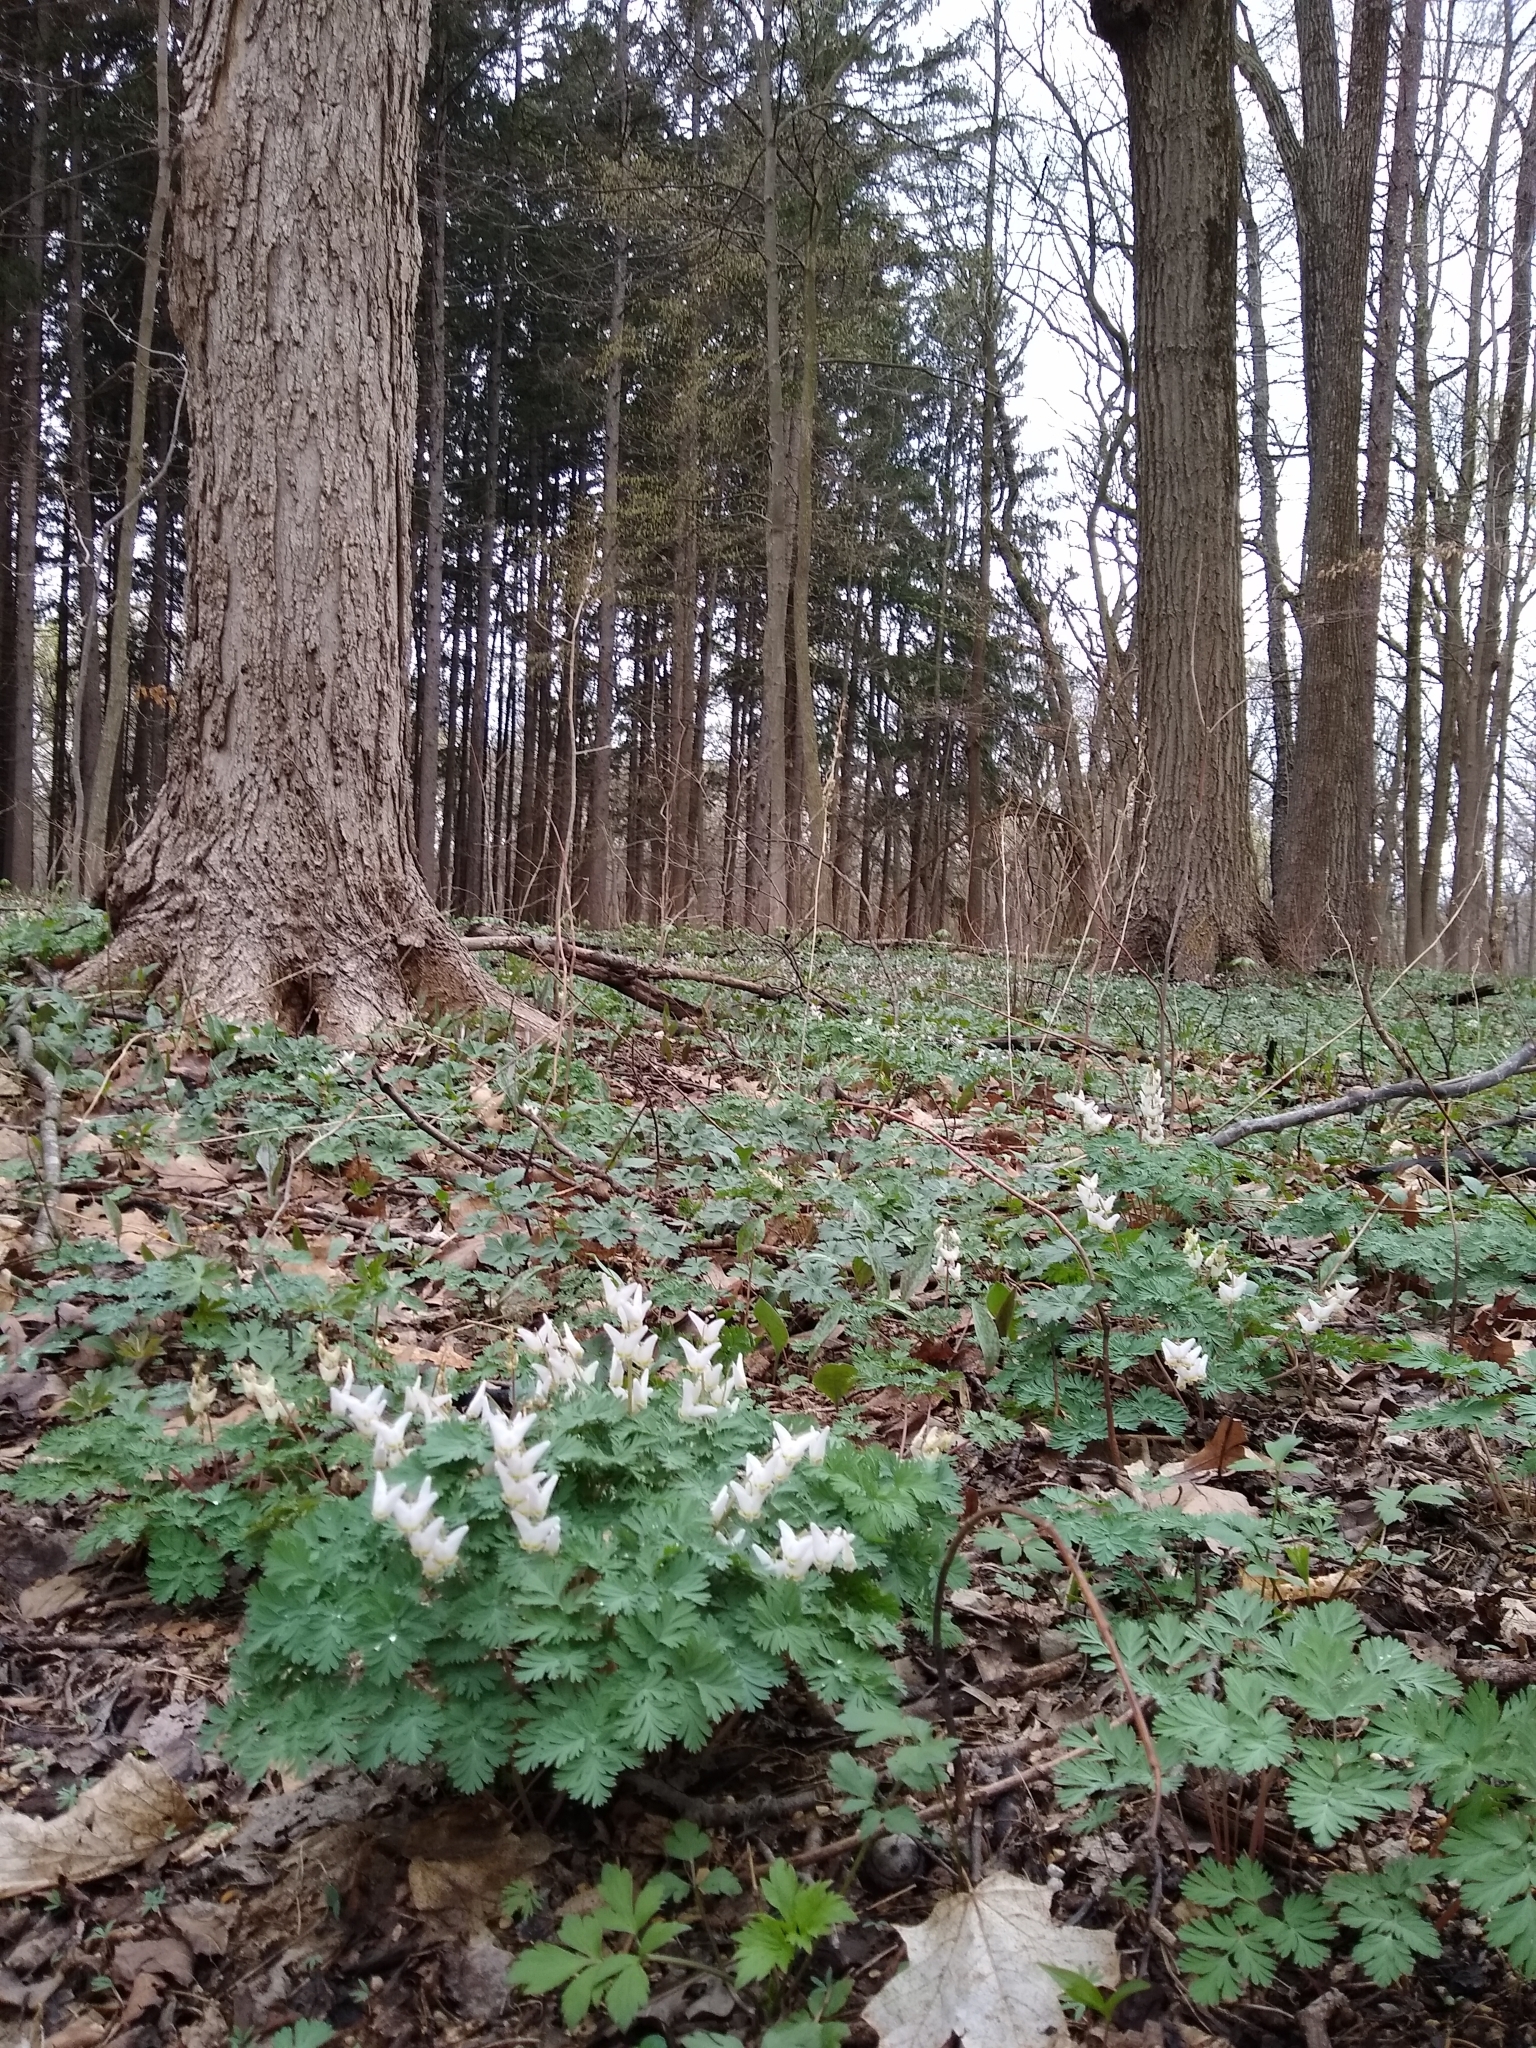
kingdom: Plantae
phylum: Tracheophyta
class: Magnoliopsida
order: Ranunculales
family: Papaveraceae
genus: Dicentra
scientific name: Dicentra cucullaria
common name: Dutchman's breeches
